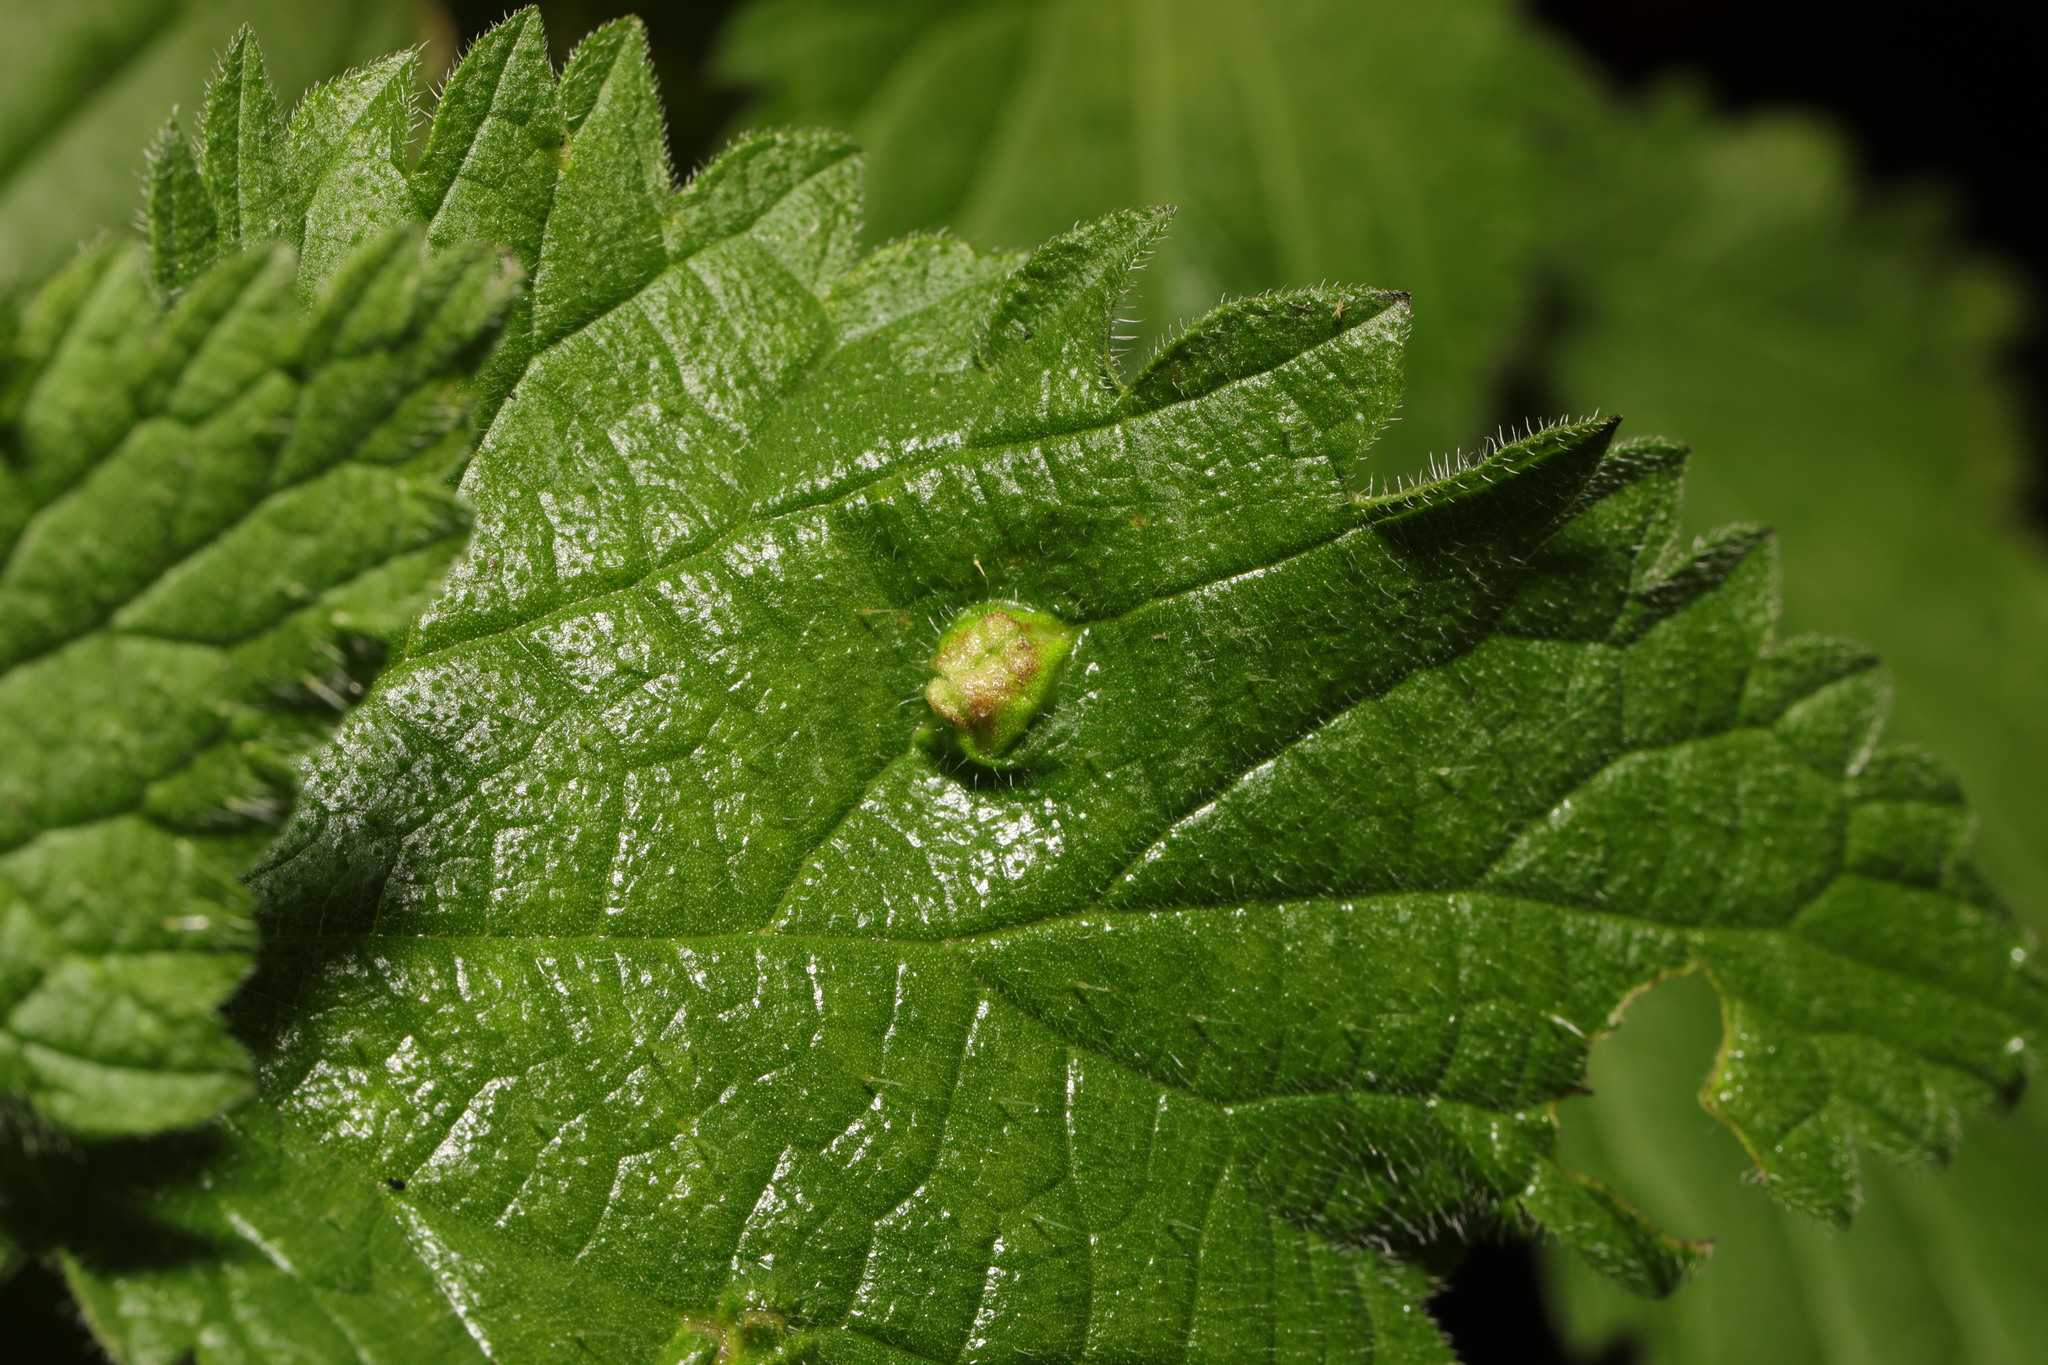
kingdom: Animalia
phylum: Arthropoda
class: Insecta
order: Diptera
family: Cecidomyiidae
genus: Dasineura
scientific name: Dasineura urticae
